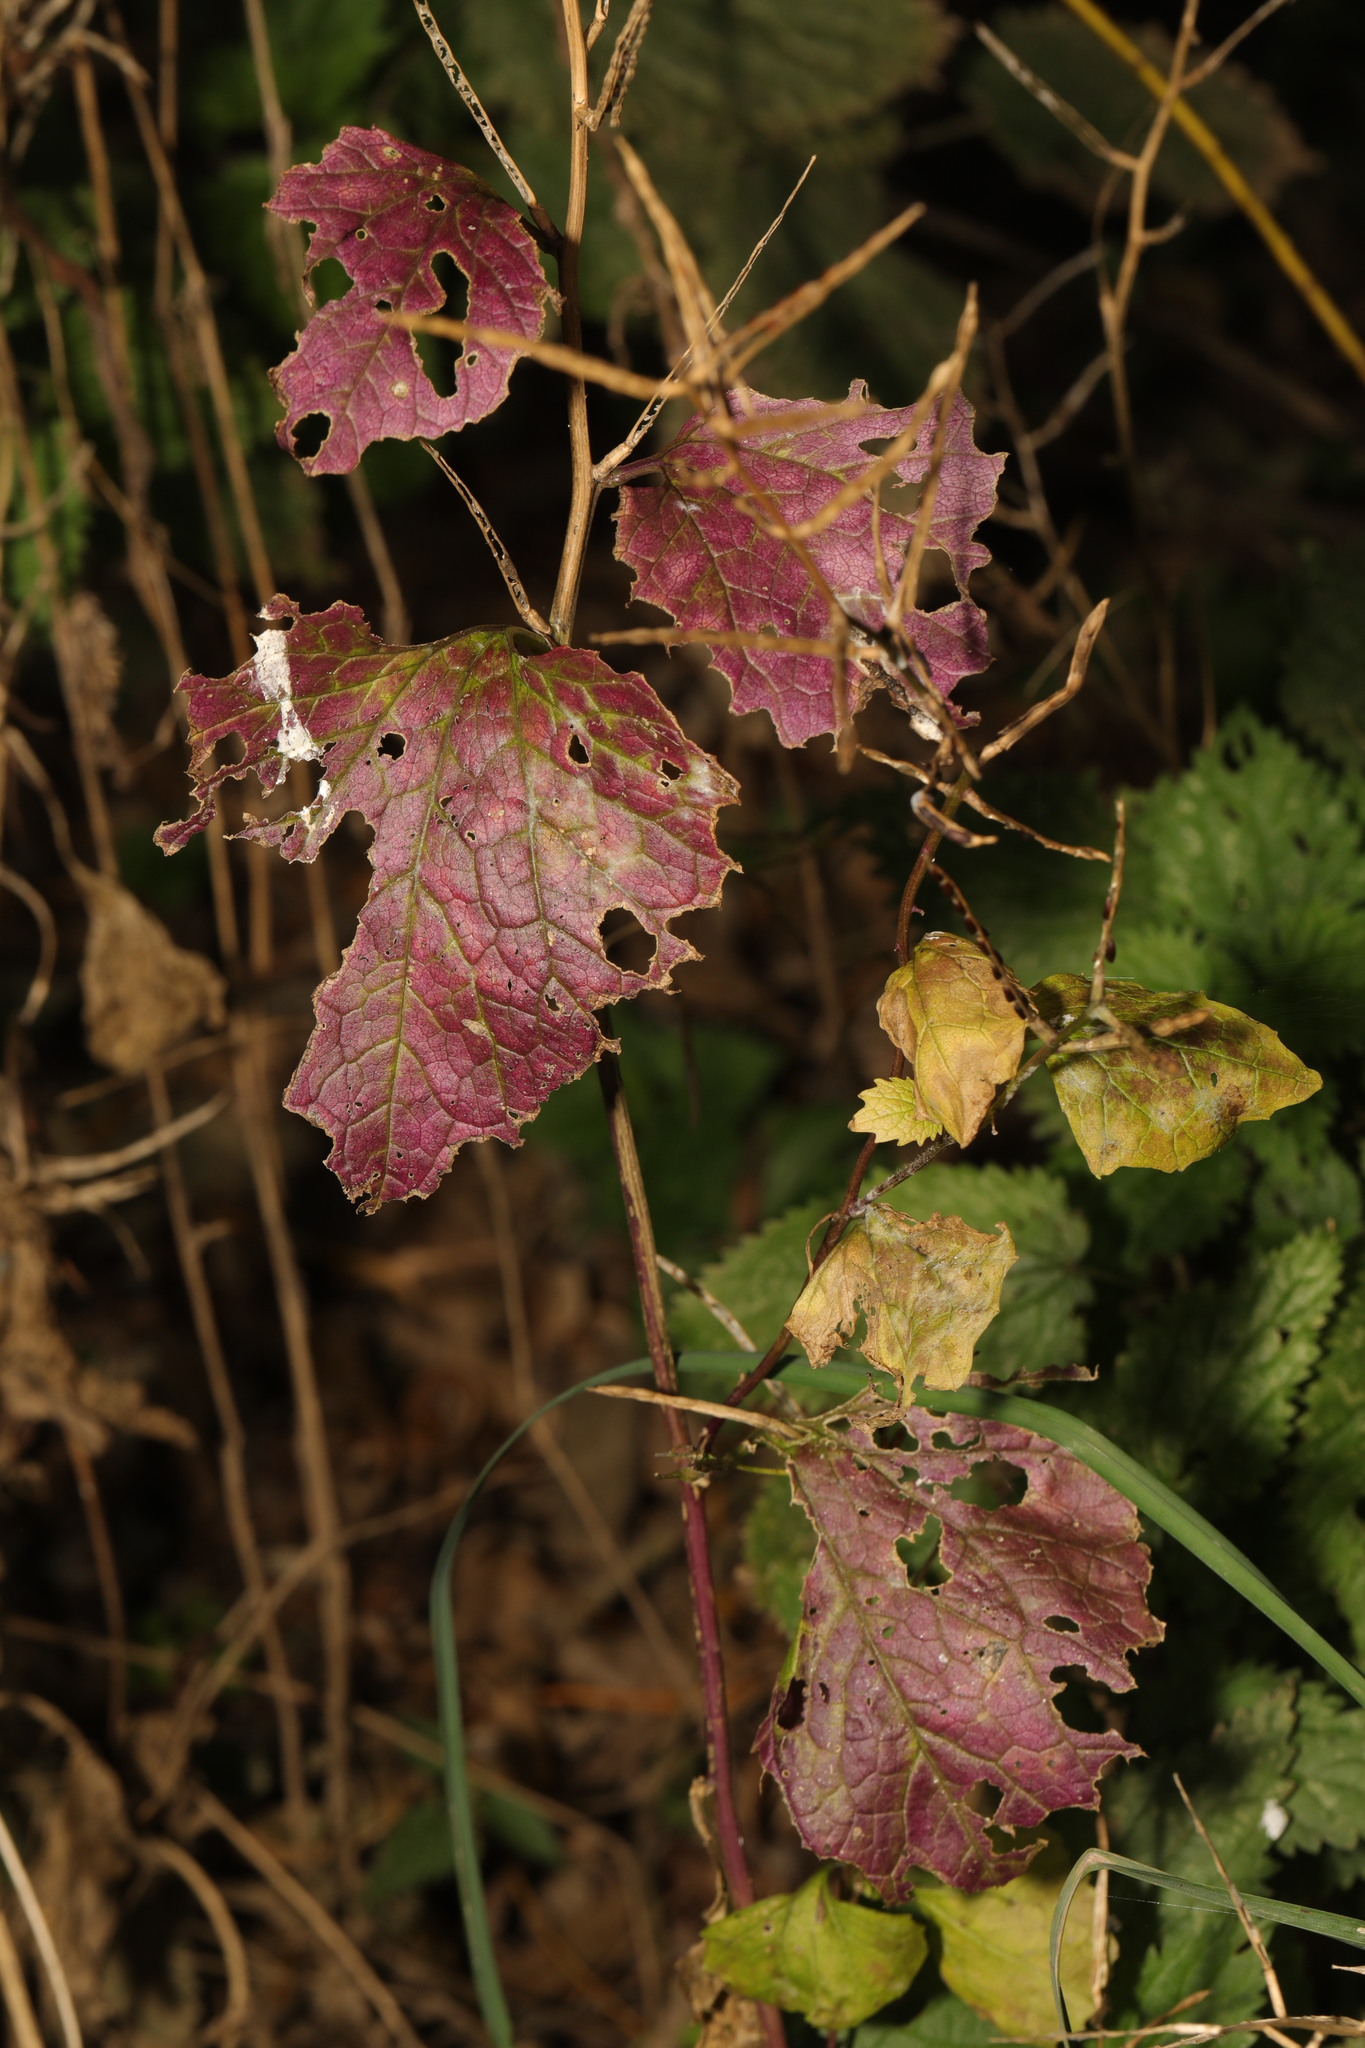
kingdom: Plantae
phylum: Tracheophyta
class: Magnoliopsida
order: Brassicales
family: Brassicaceae
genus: Alliaria
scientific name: Alliaria petiolata
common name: Garlic mustard
